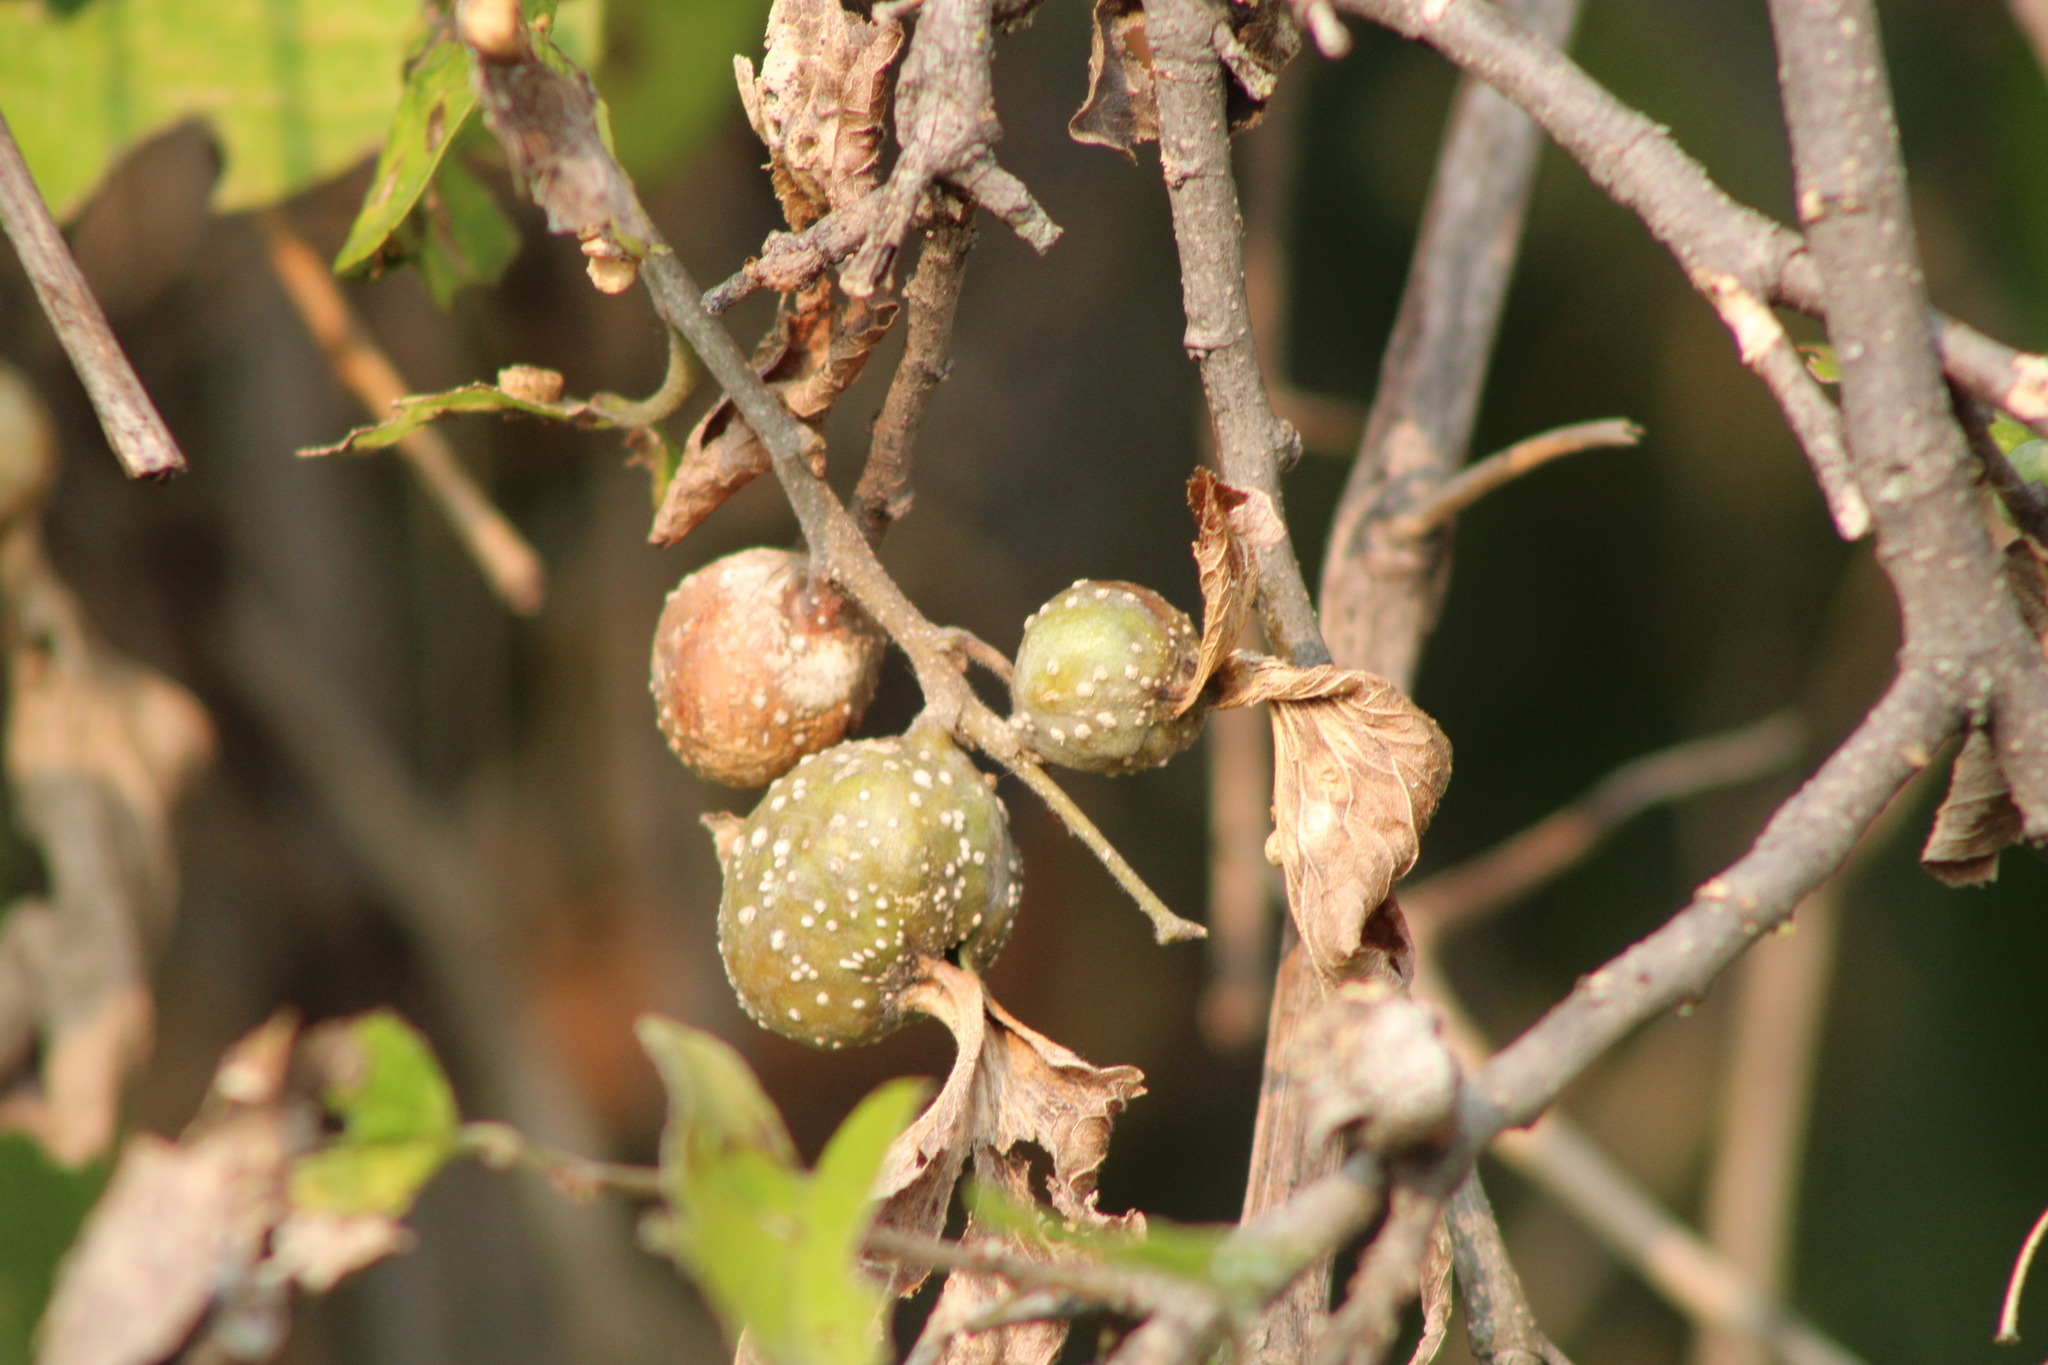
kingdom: Animalia
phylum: Arthropoda
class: Insecta
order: Hemiptera
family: Aphalaridae
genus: Pachypsylla
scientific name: Pachypsylla venusta
